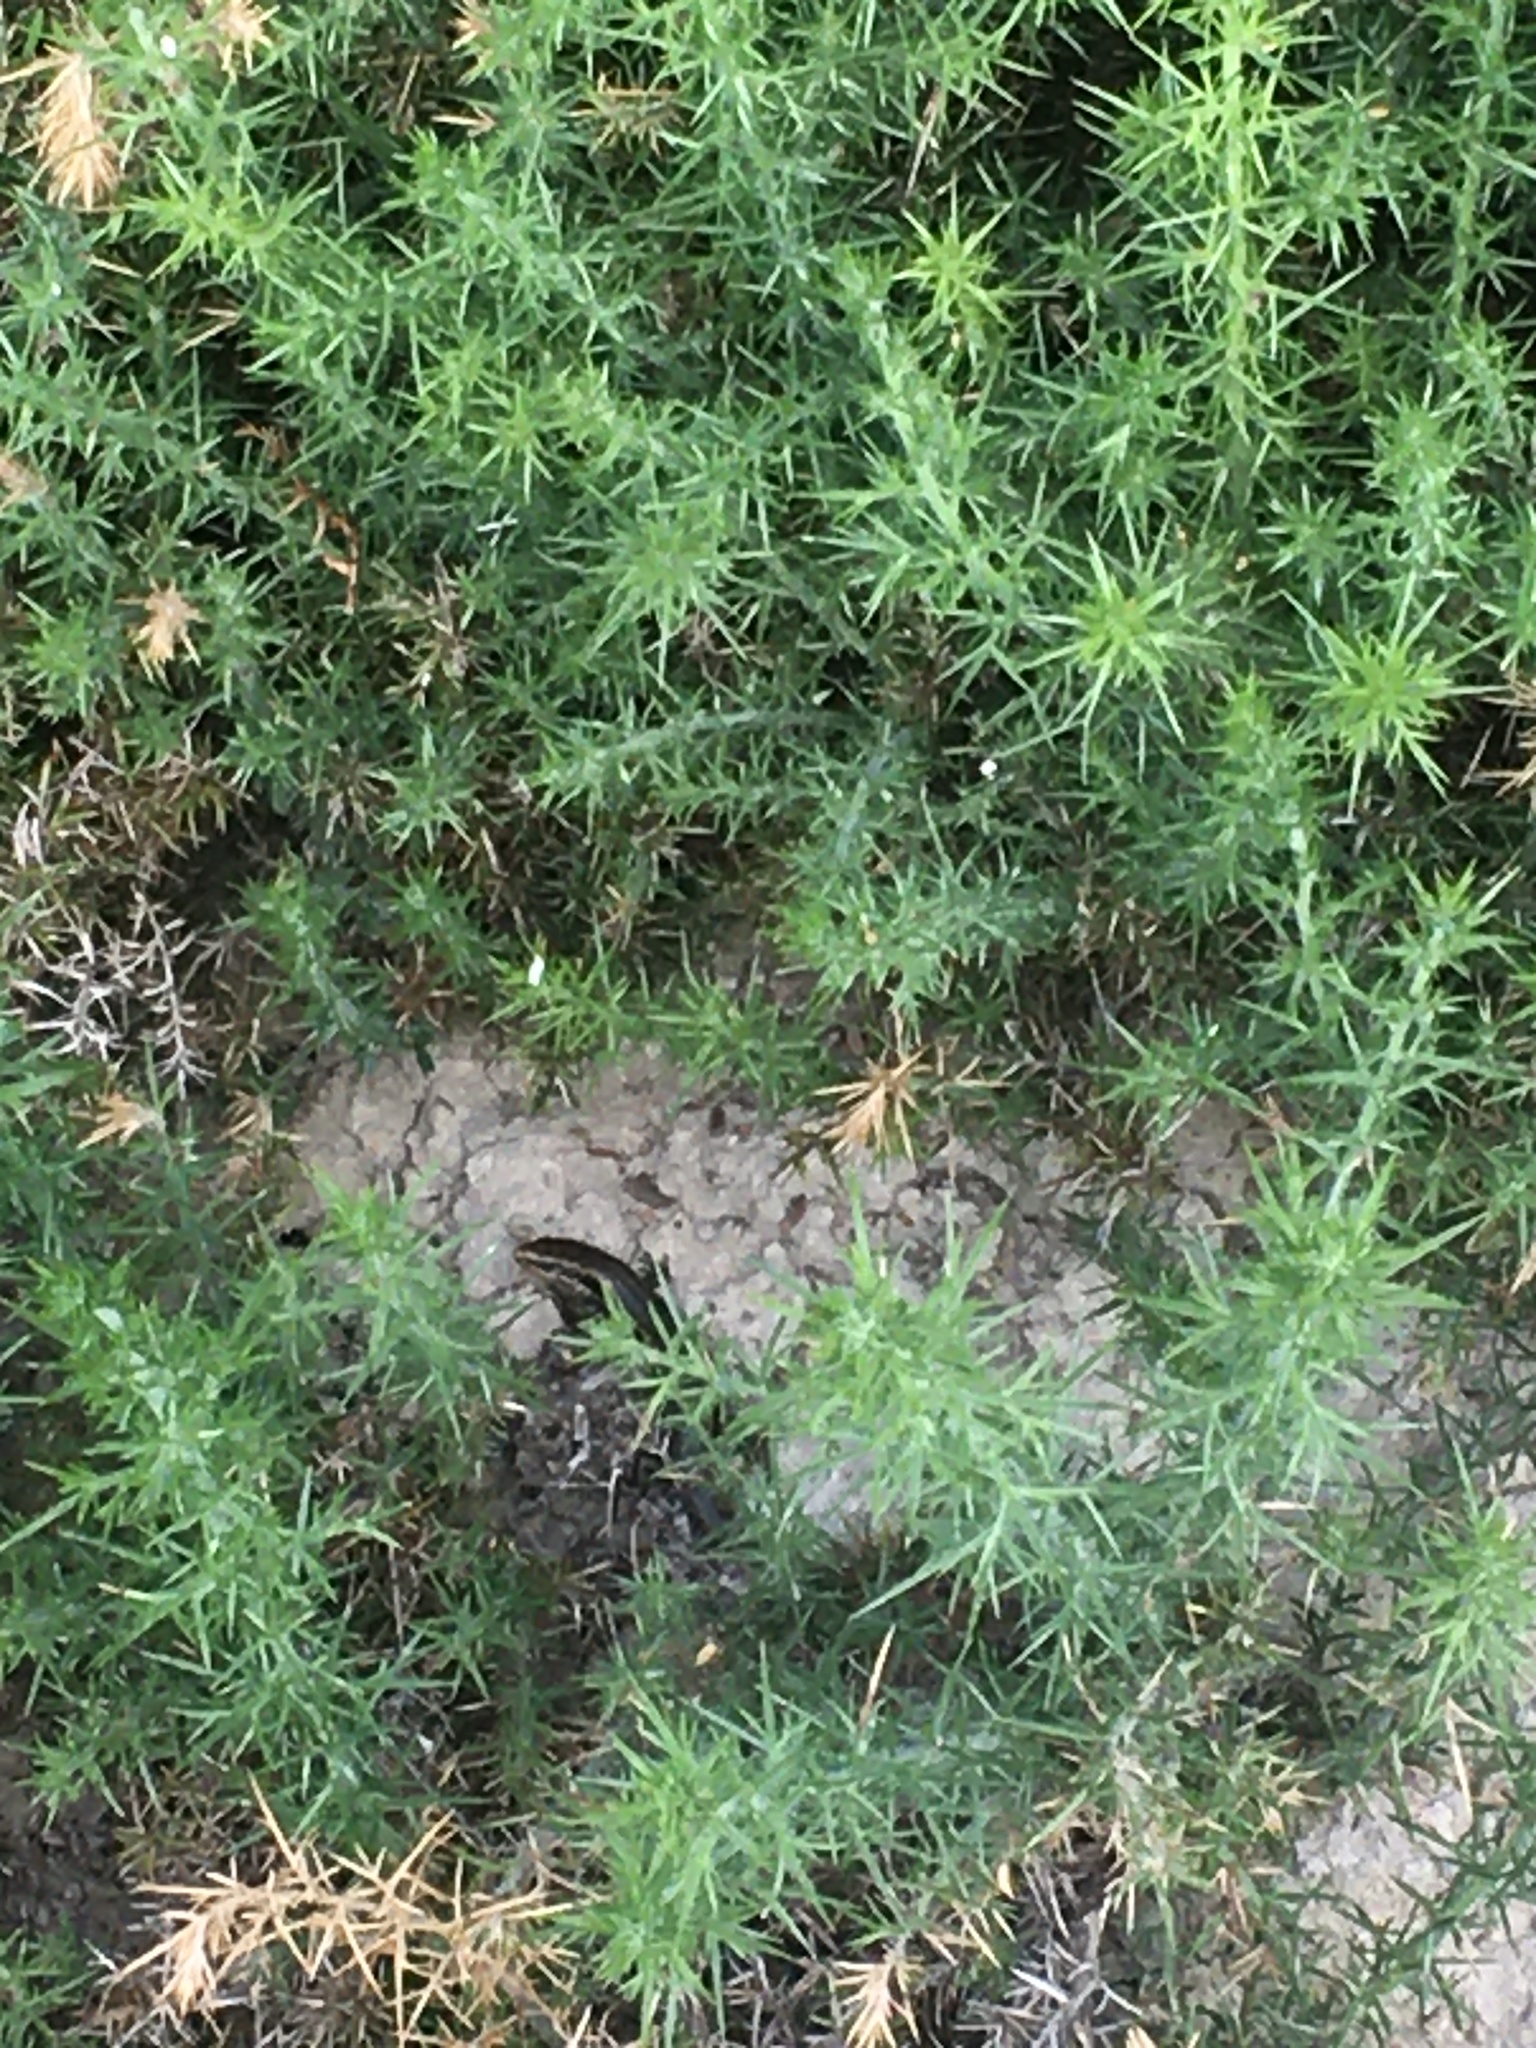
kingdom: Animalia
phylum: Chordata
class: Squamata
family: Scincidae
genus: Oligosoma
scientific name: Oligosoma polychroma
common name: Common new zealand skink
